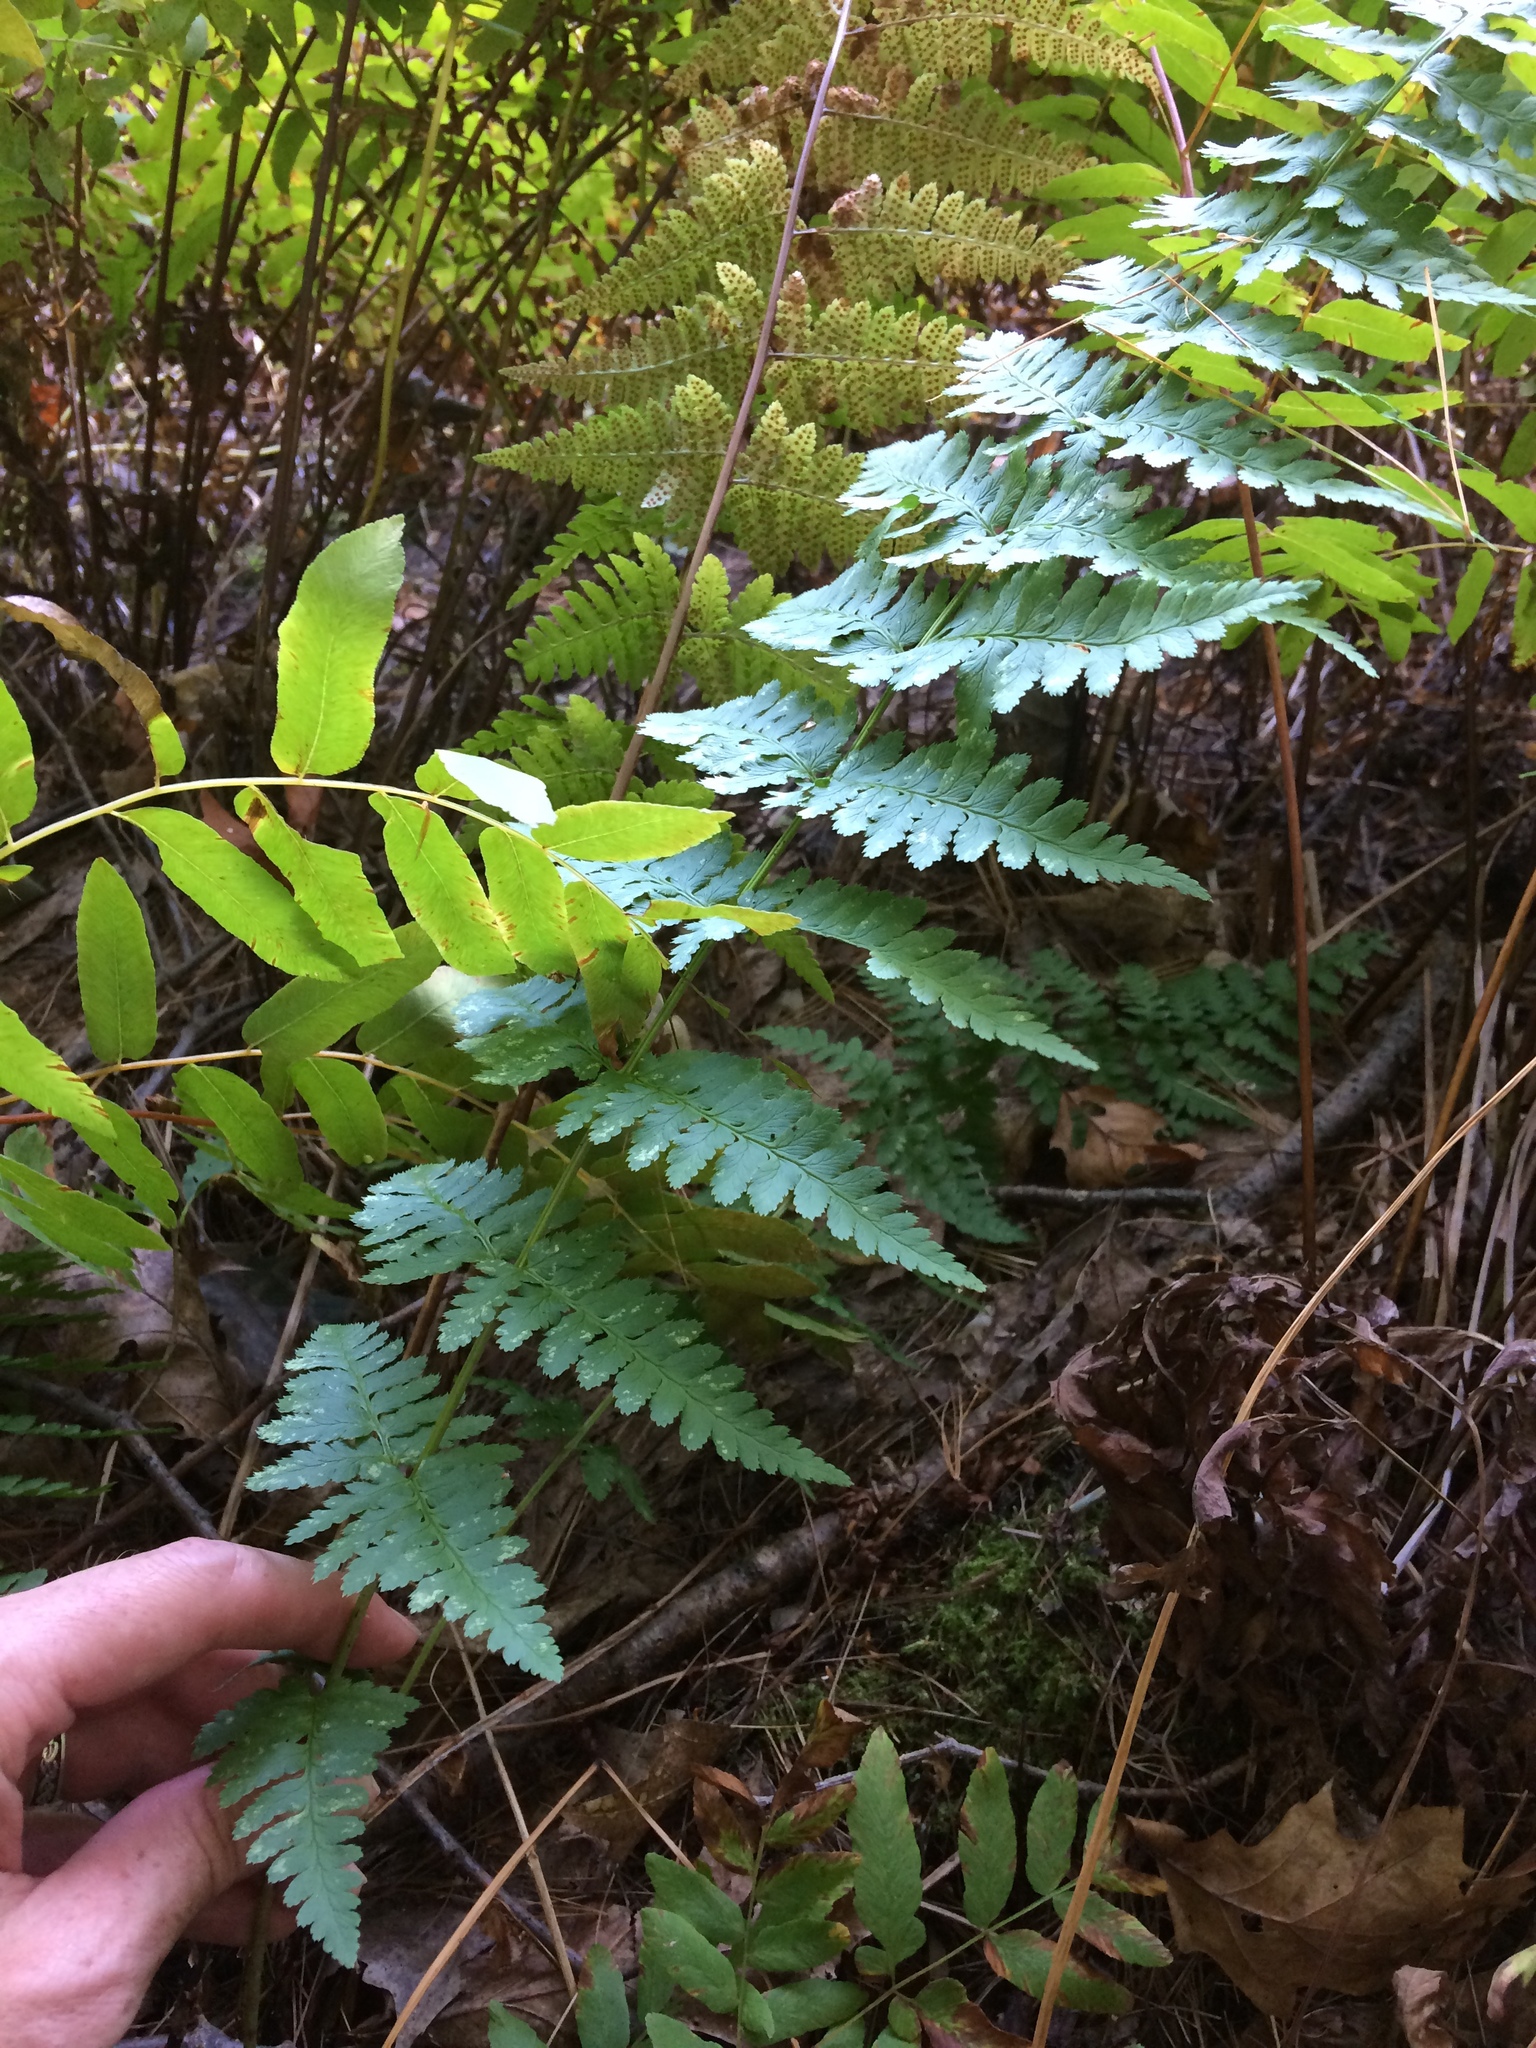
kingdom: Plantae
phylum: Tracheophyta
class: Polypodiopsida
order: Polypodiales
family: Dryopteridaceae
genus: Dryopteris
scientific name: Dryopteris cristata
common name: Crested wood fern
